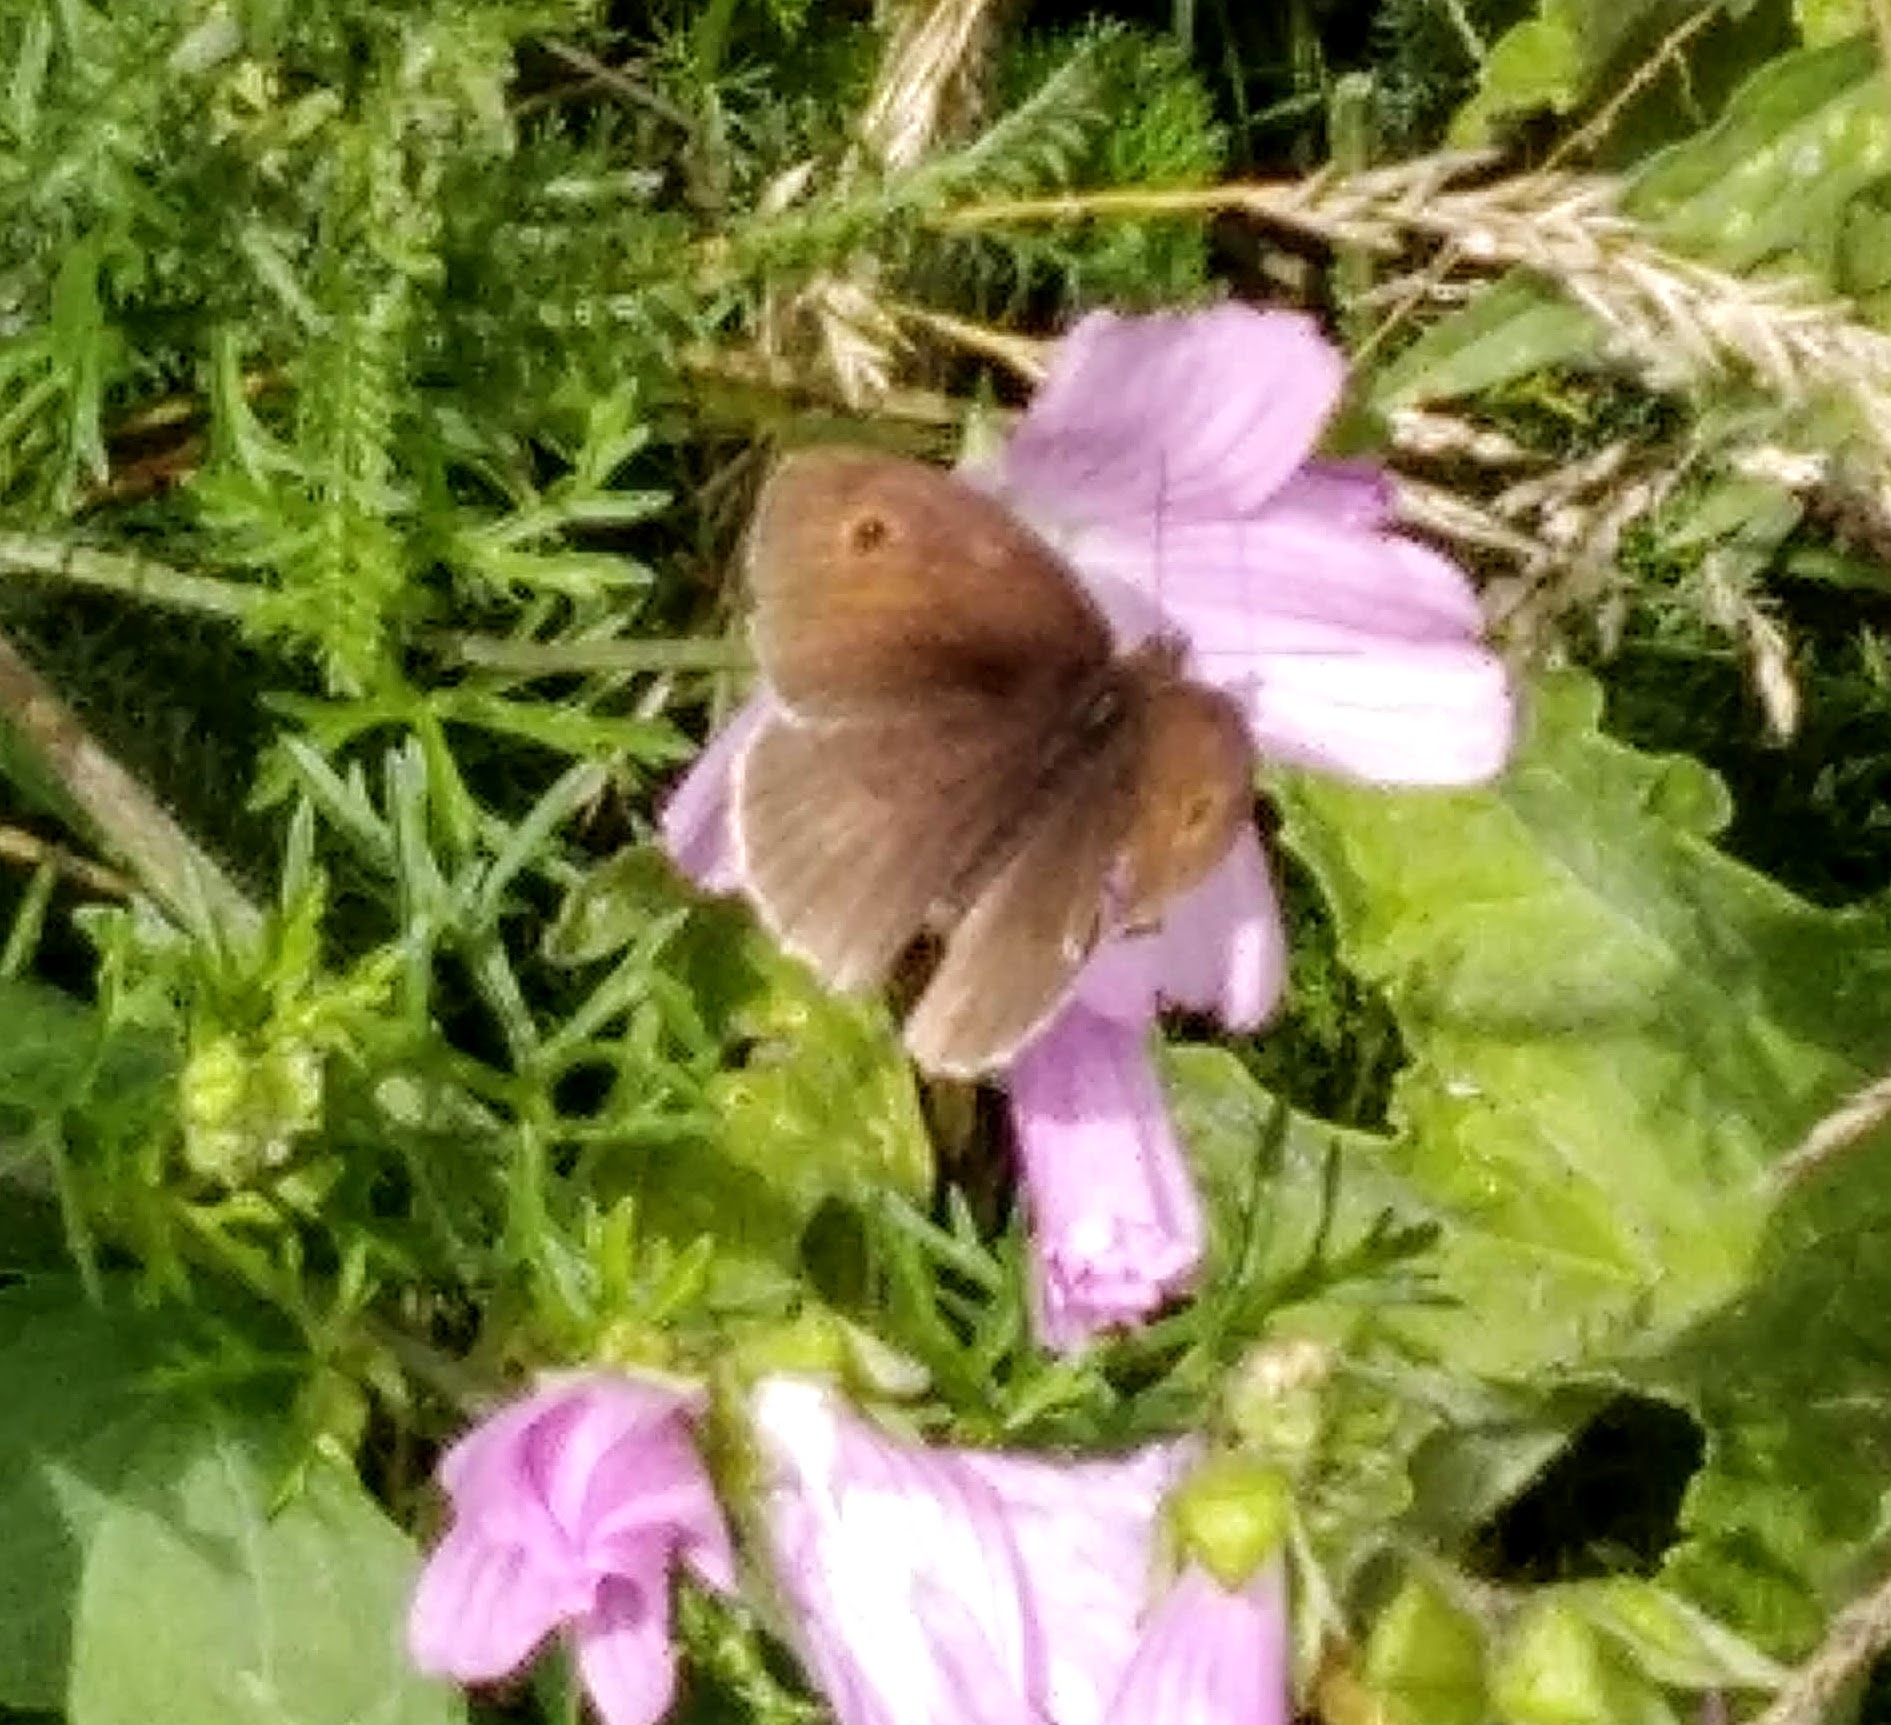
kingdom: Animalia
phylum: Arthropoda
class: Insecta
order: Lepidoptera
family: Nymphalidae
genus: Maniola
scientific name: Maniola jurtina
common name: Meadow brown
